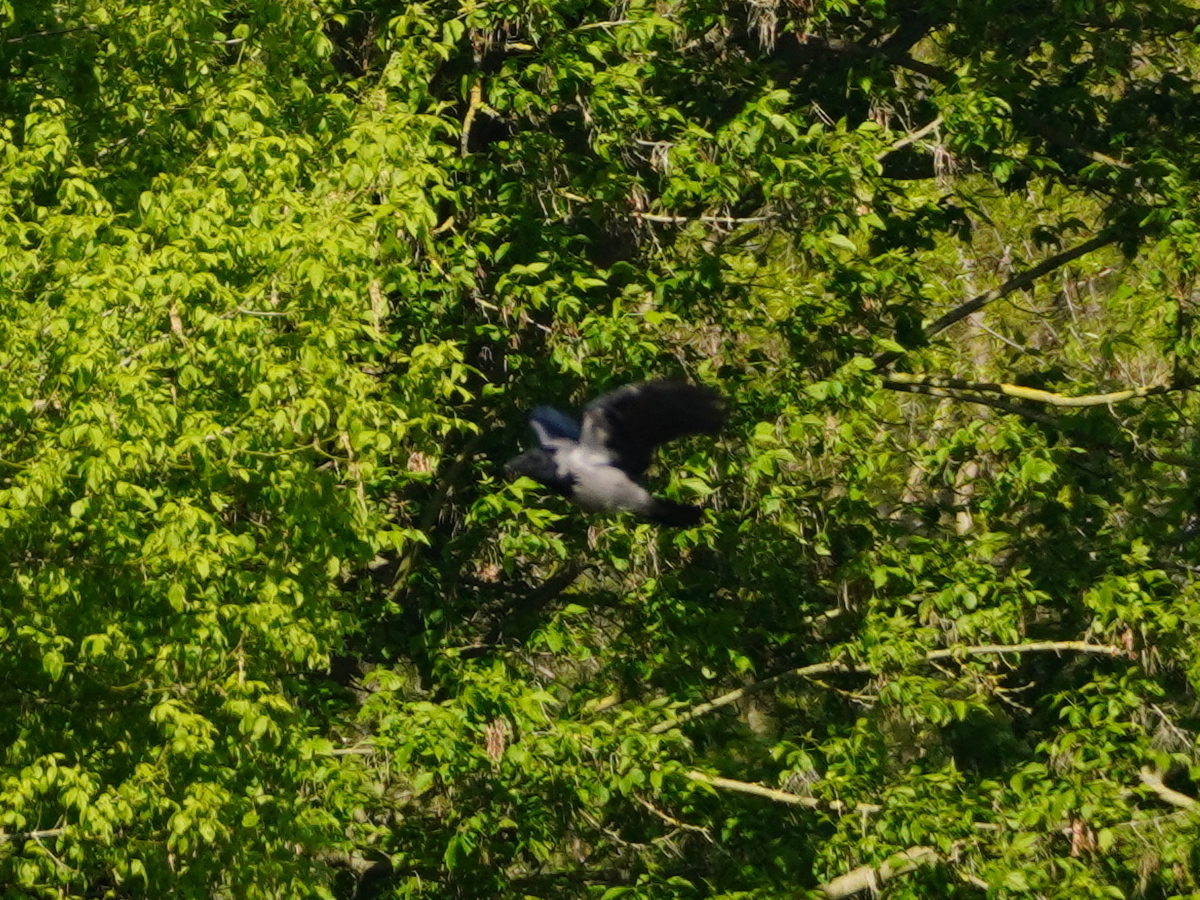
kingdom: Animalia
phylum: Chordata
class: Aves
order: Passeriformes
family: Corvidae
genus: Corvus
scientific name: Corvus cornix
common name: Hooded crow
